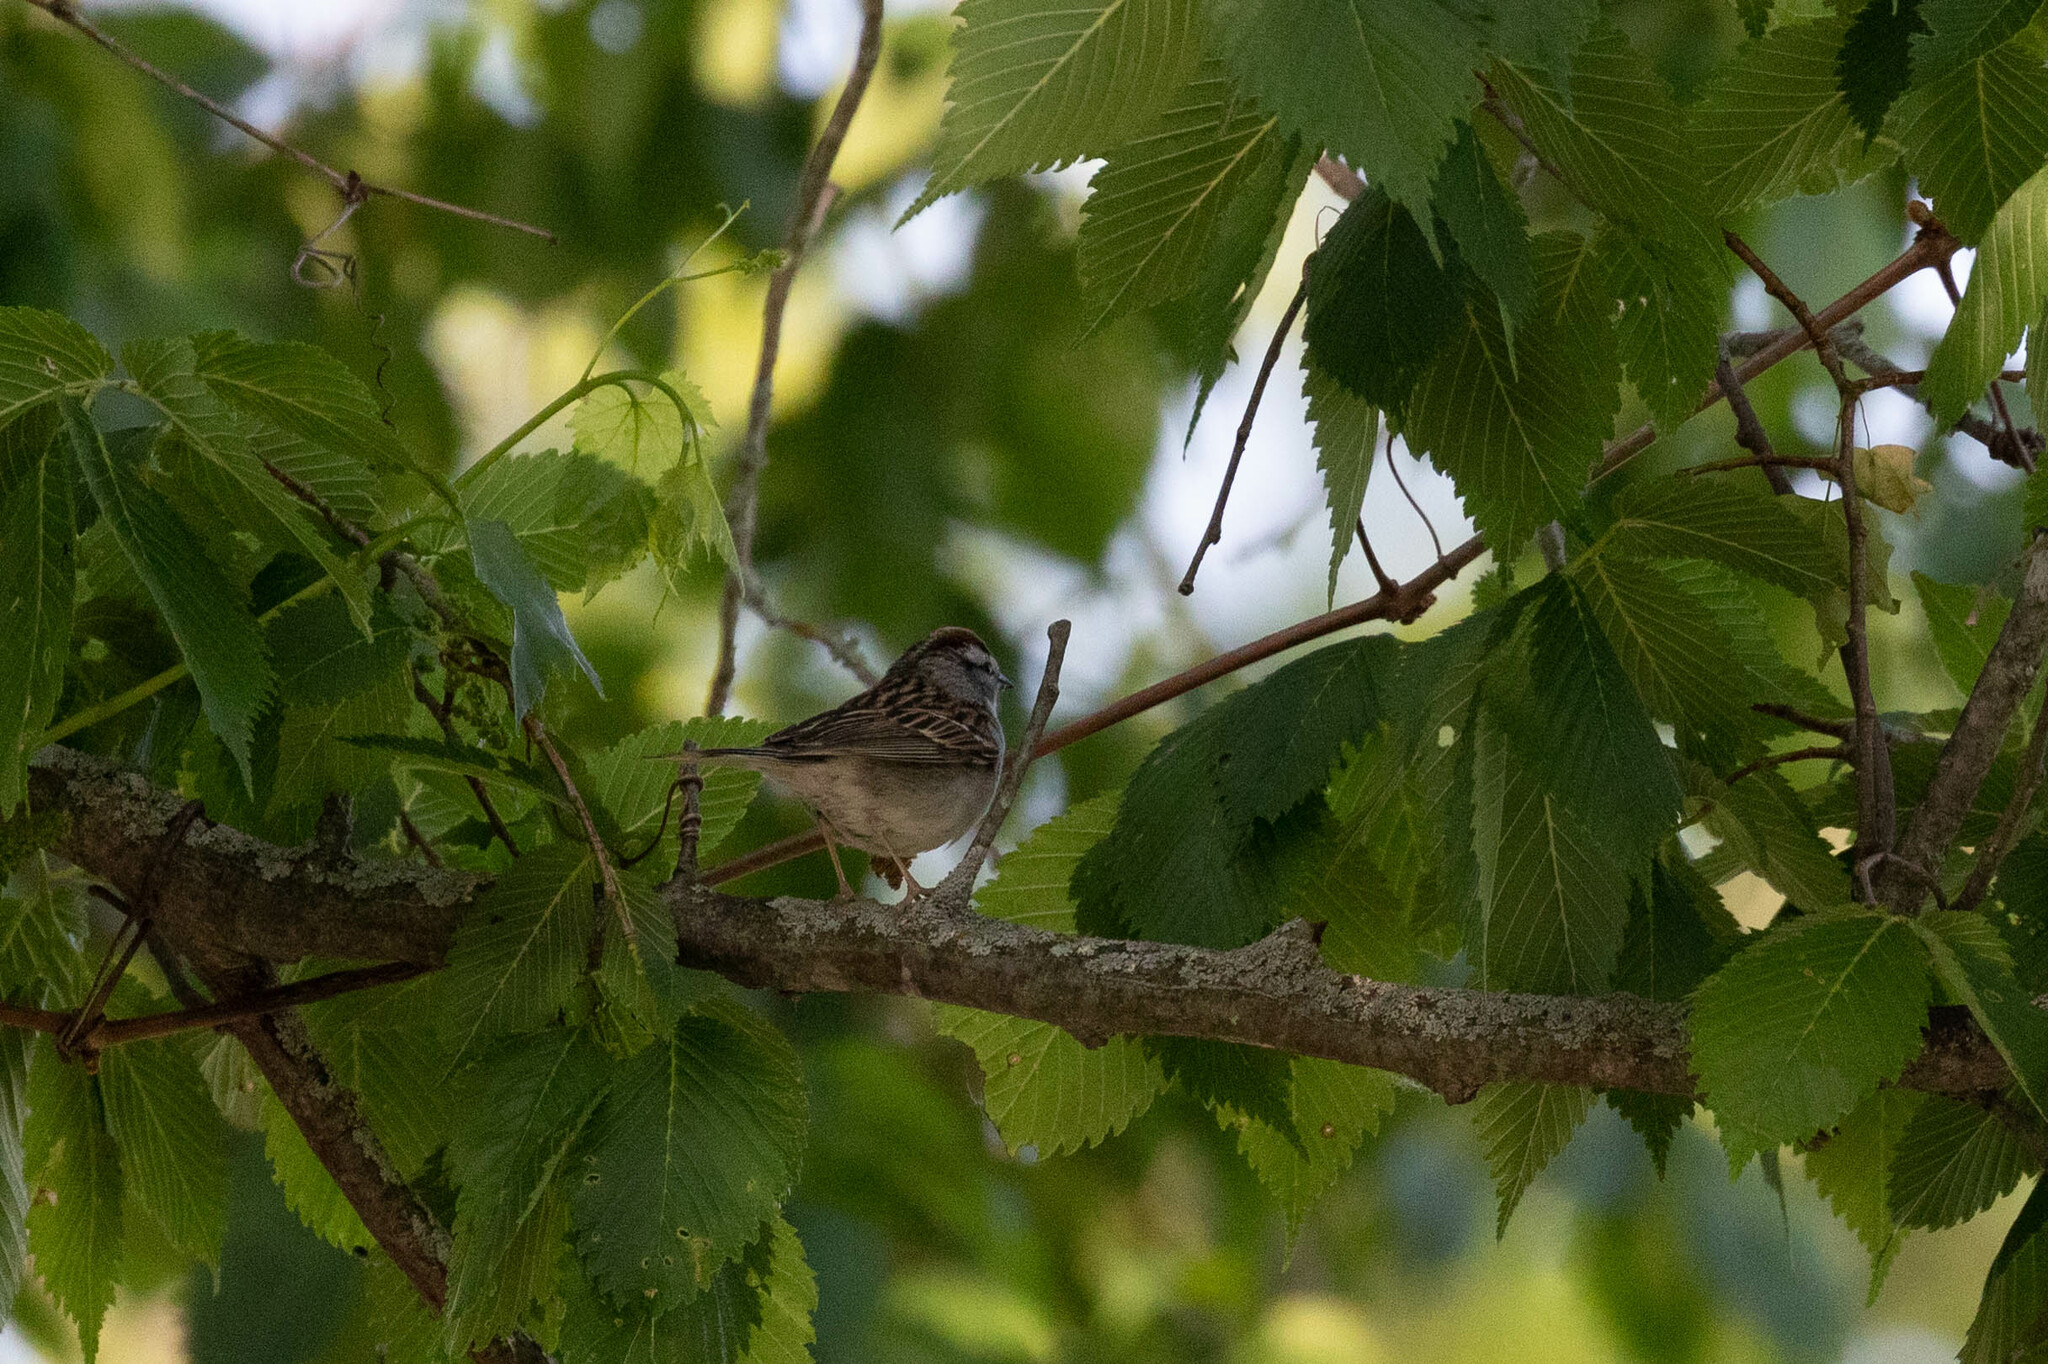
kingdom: Animalia
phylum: Chordata
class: Aves
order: Passeriformes
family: Passerellidae
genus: Spizella
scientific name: Spizella passerina
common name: Chipping sparrow
